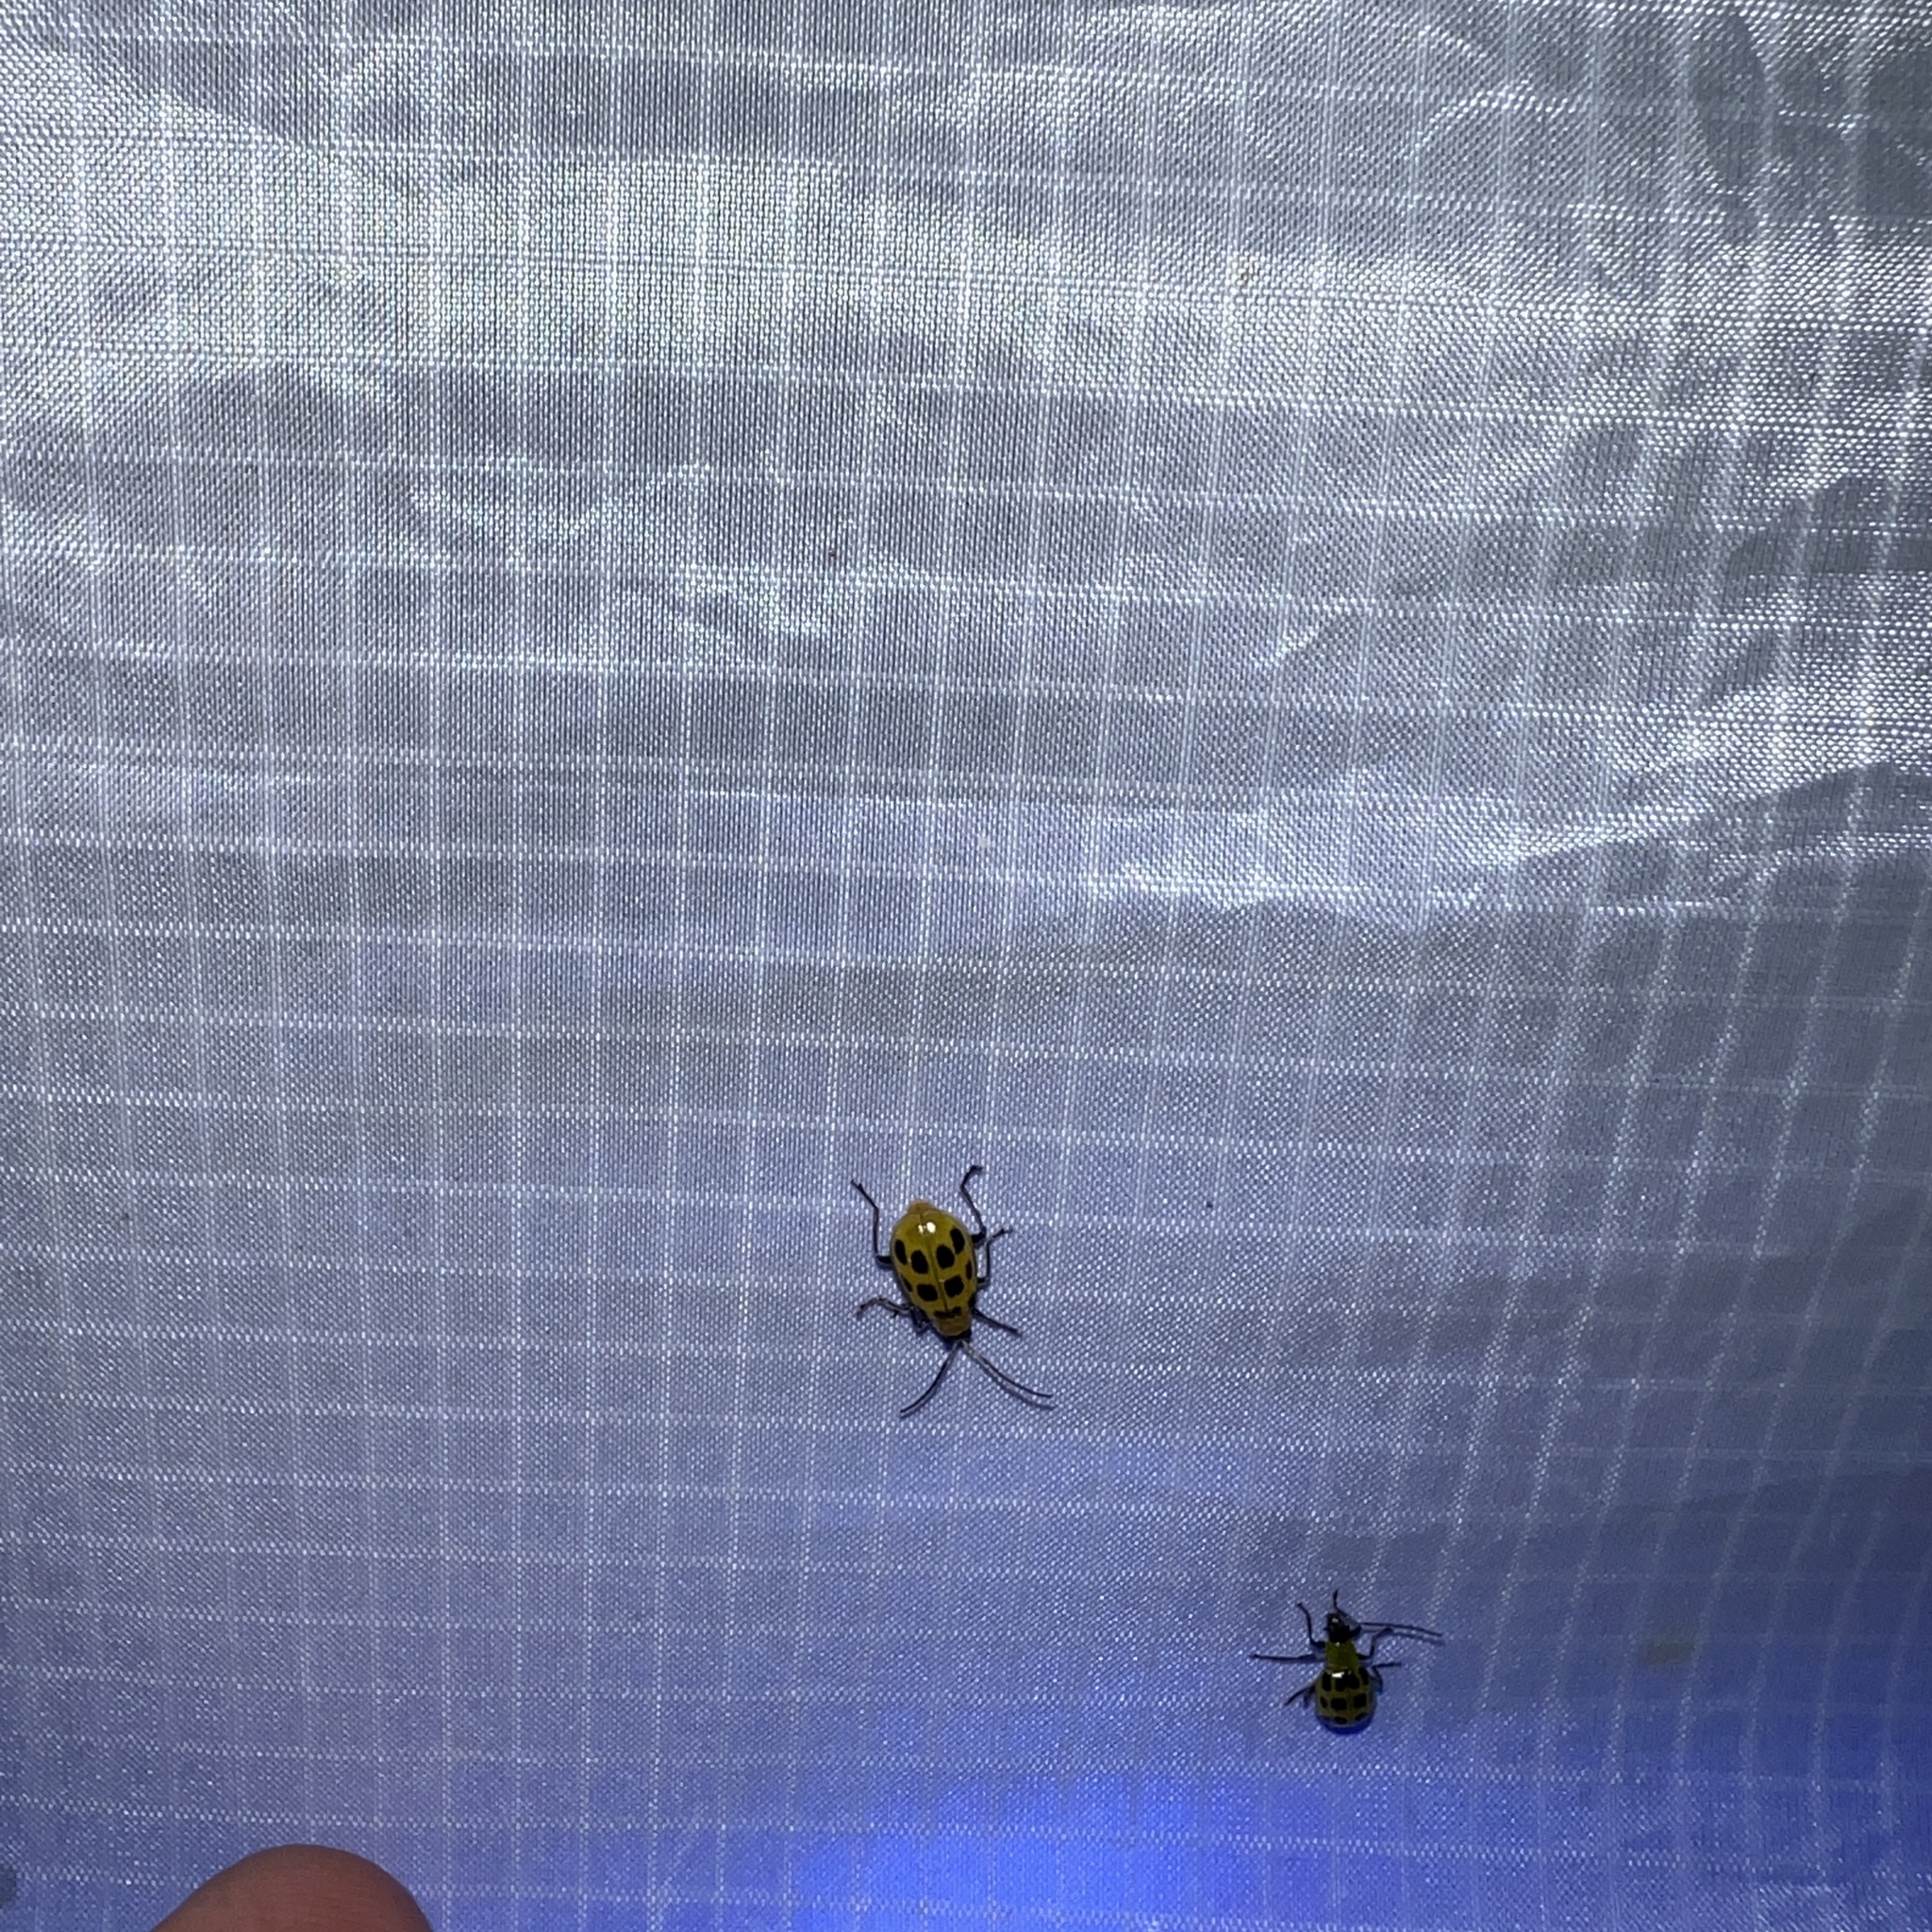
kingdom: Animalia
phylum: Arthropoda
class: Insecta
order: Coleoptera
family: Chrysomelidae
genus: Diabrotica
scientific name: Diabrotica undecimpunctata
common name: Spotted cucumber beetle
